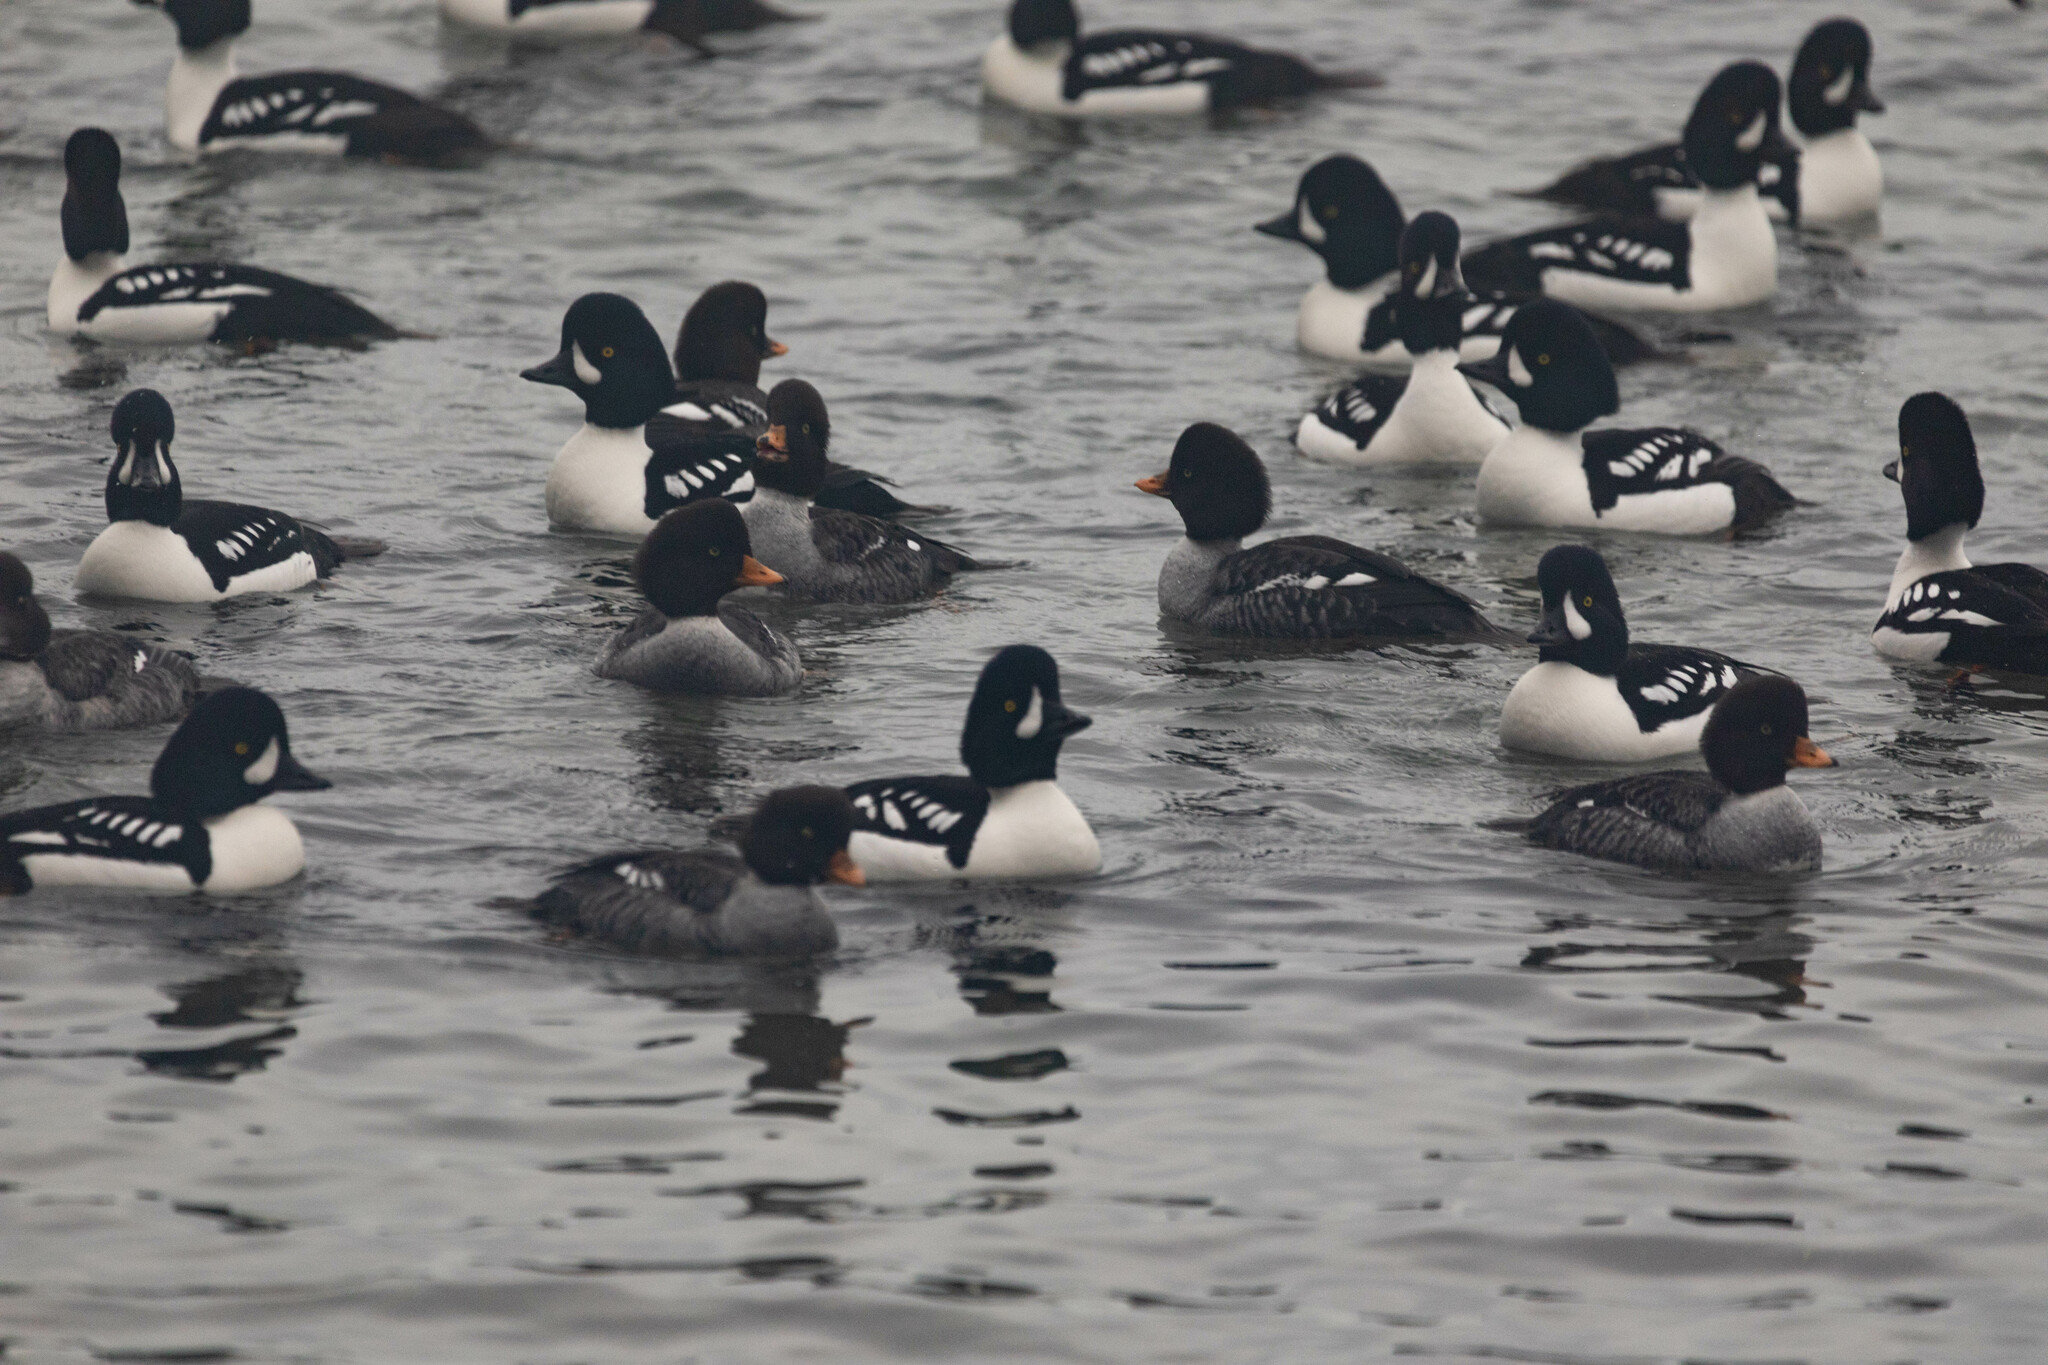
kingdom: Animalia
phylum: Chordata
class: Aves
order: Anseriformes
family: Anatidae
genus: Bucephala
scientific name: Bucephala islandica
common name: Barrow's goldeneye
